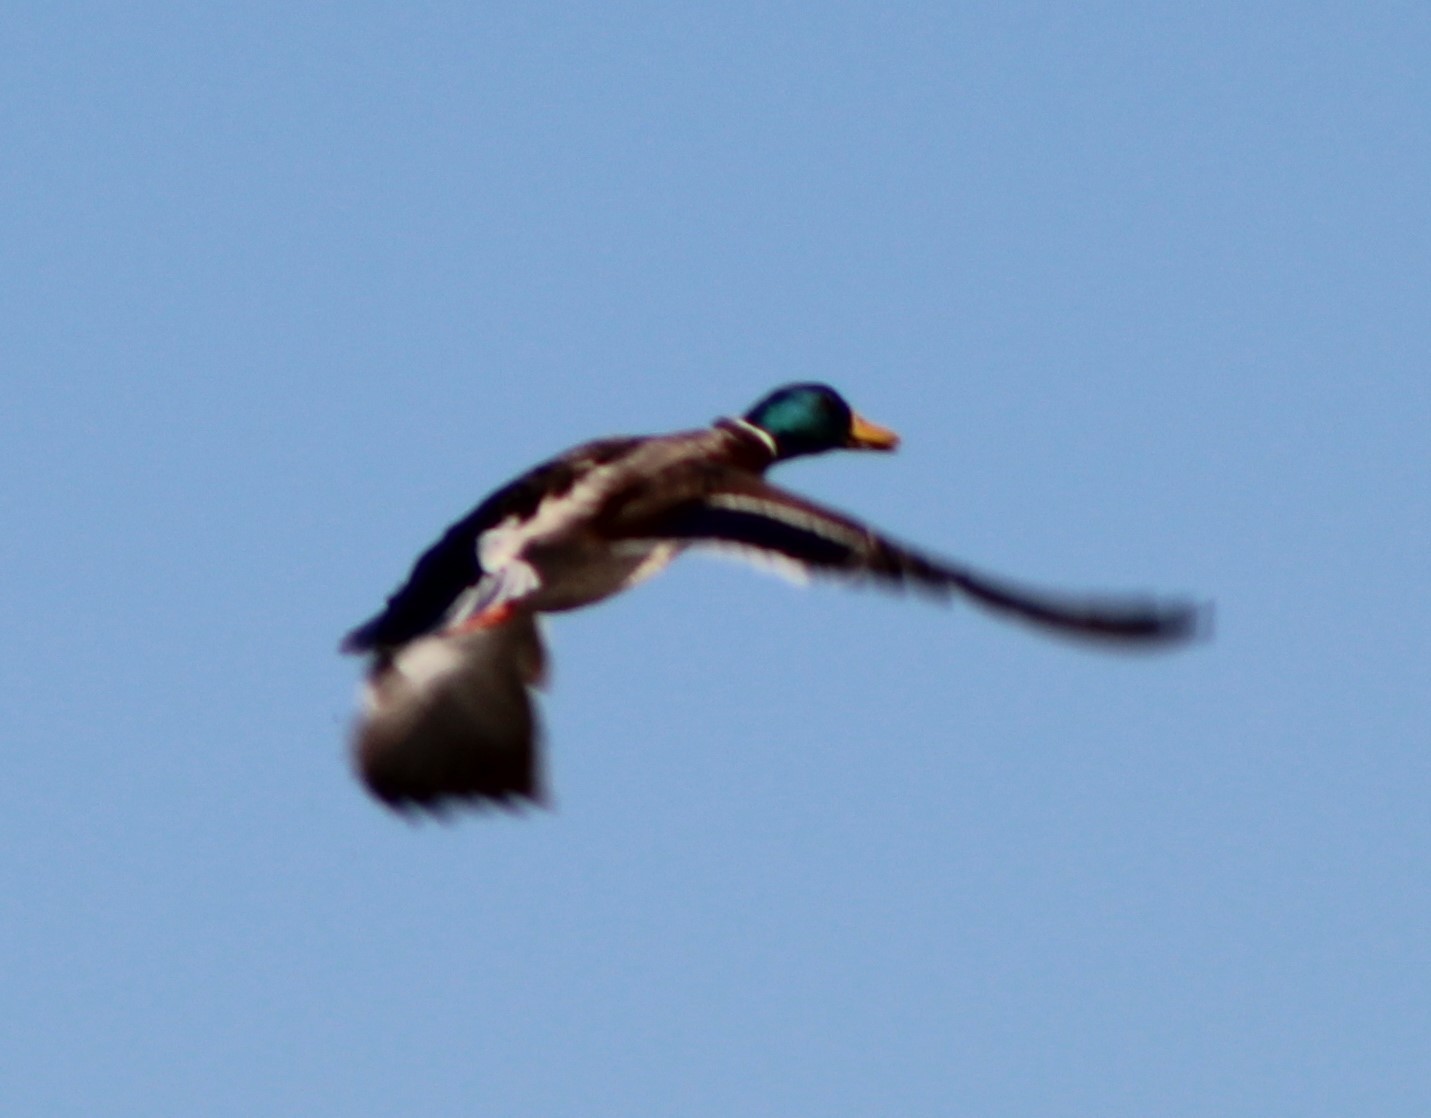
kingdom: Animalia
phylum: Chordata
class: Aves
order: Anseriformes
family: Anatidae
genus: Anas
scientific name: Anas platyrhynchos
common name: Mallard
